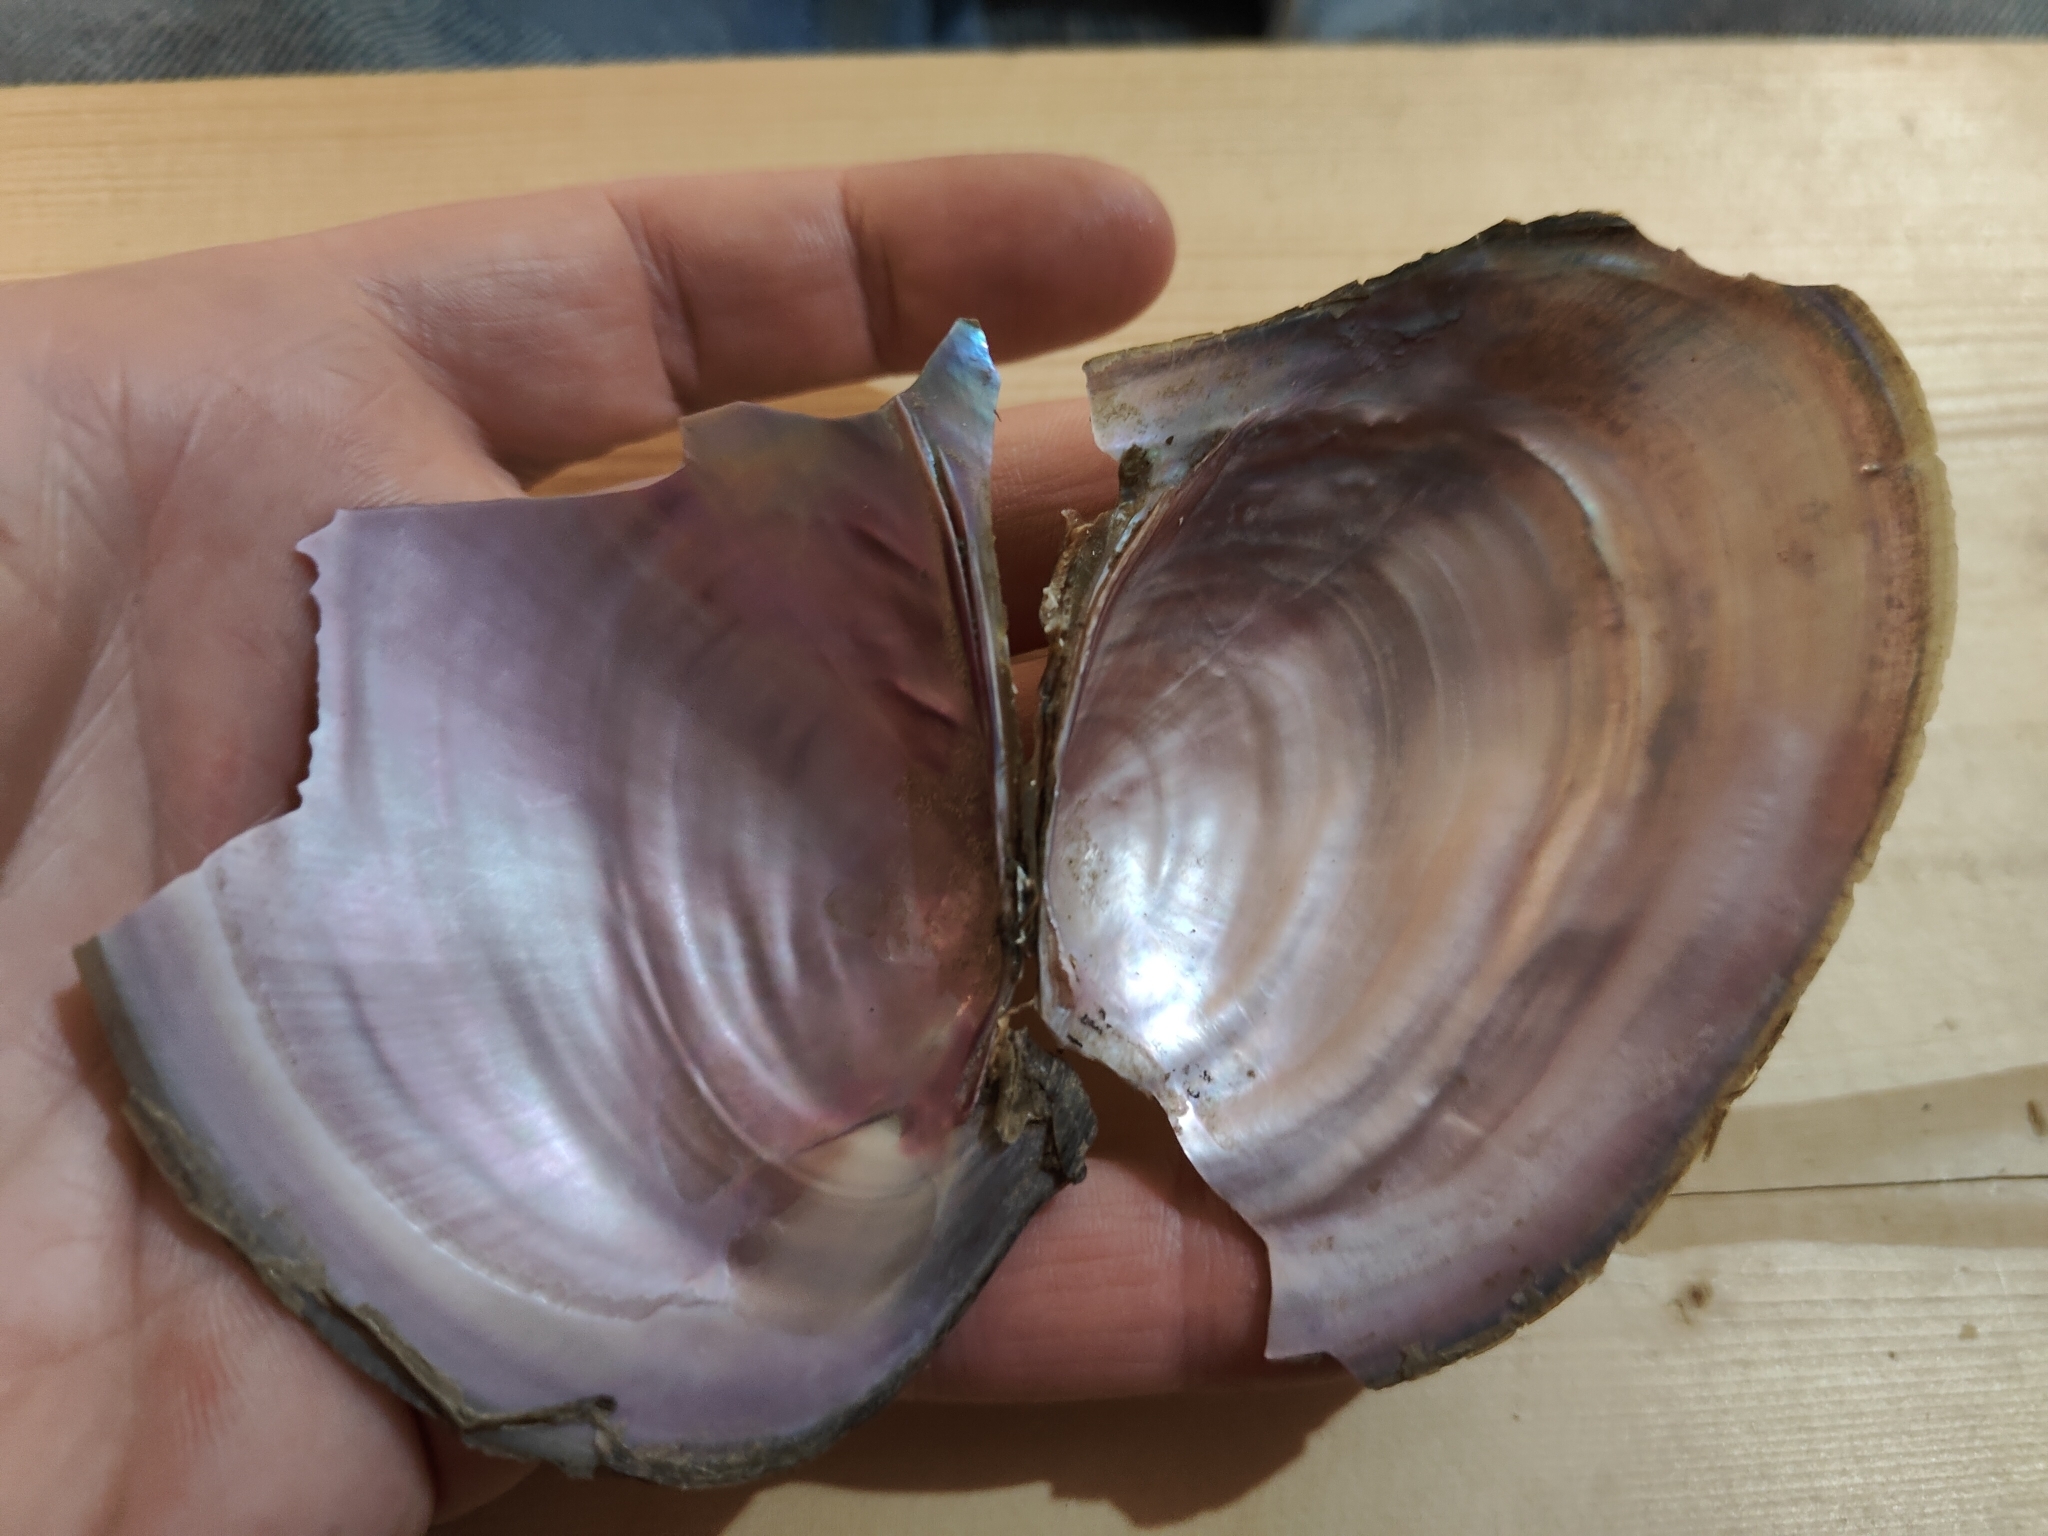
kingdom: Animalia
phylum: Mollusca
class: Bivalvia
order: Unionida
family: Unionidae
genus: Potamilus
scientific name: Potamilus ohiensis
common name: Pink papershell
